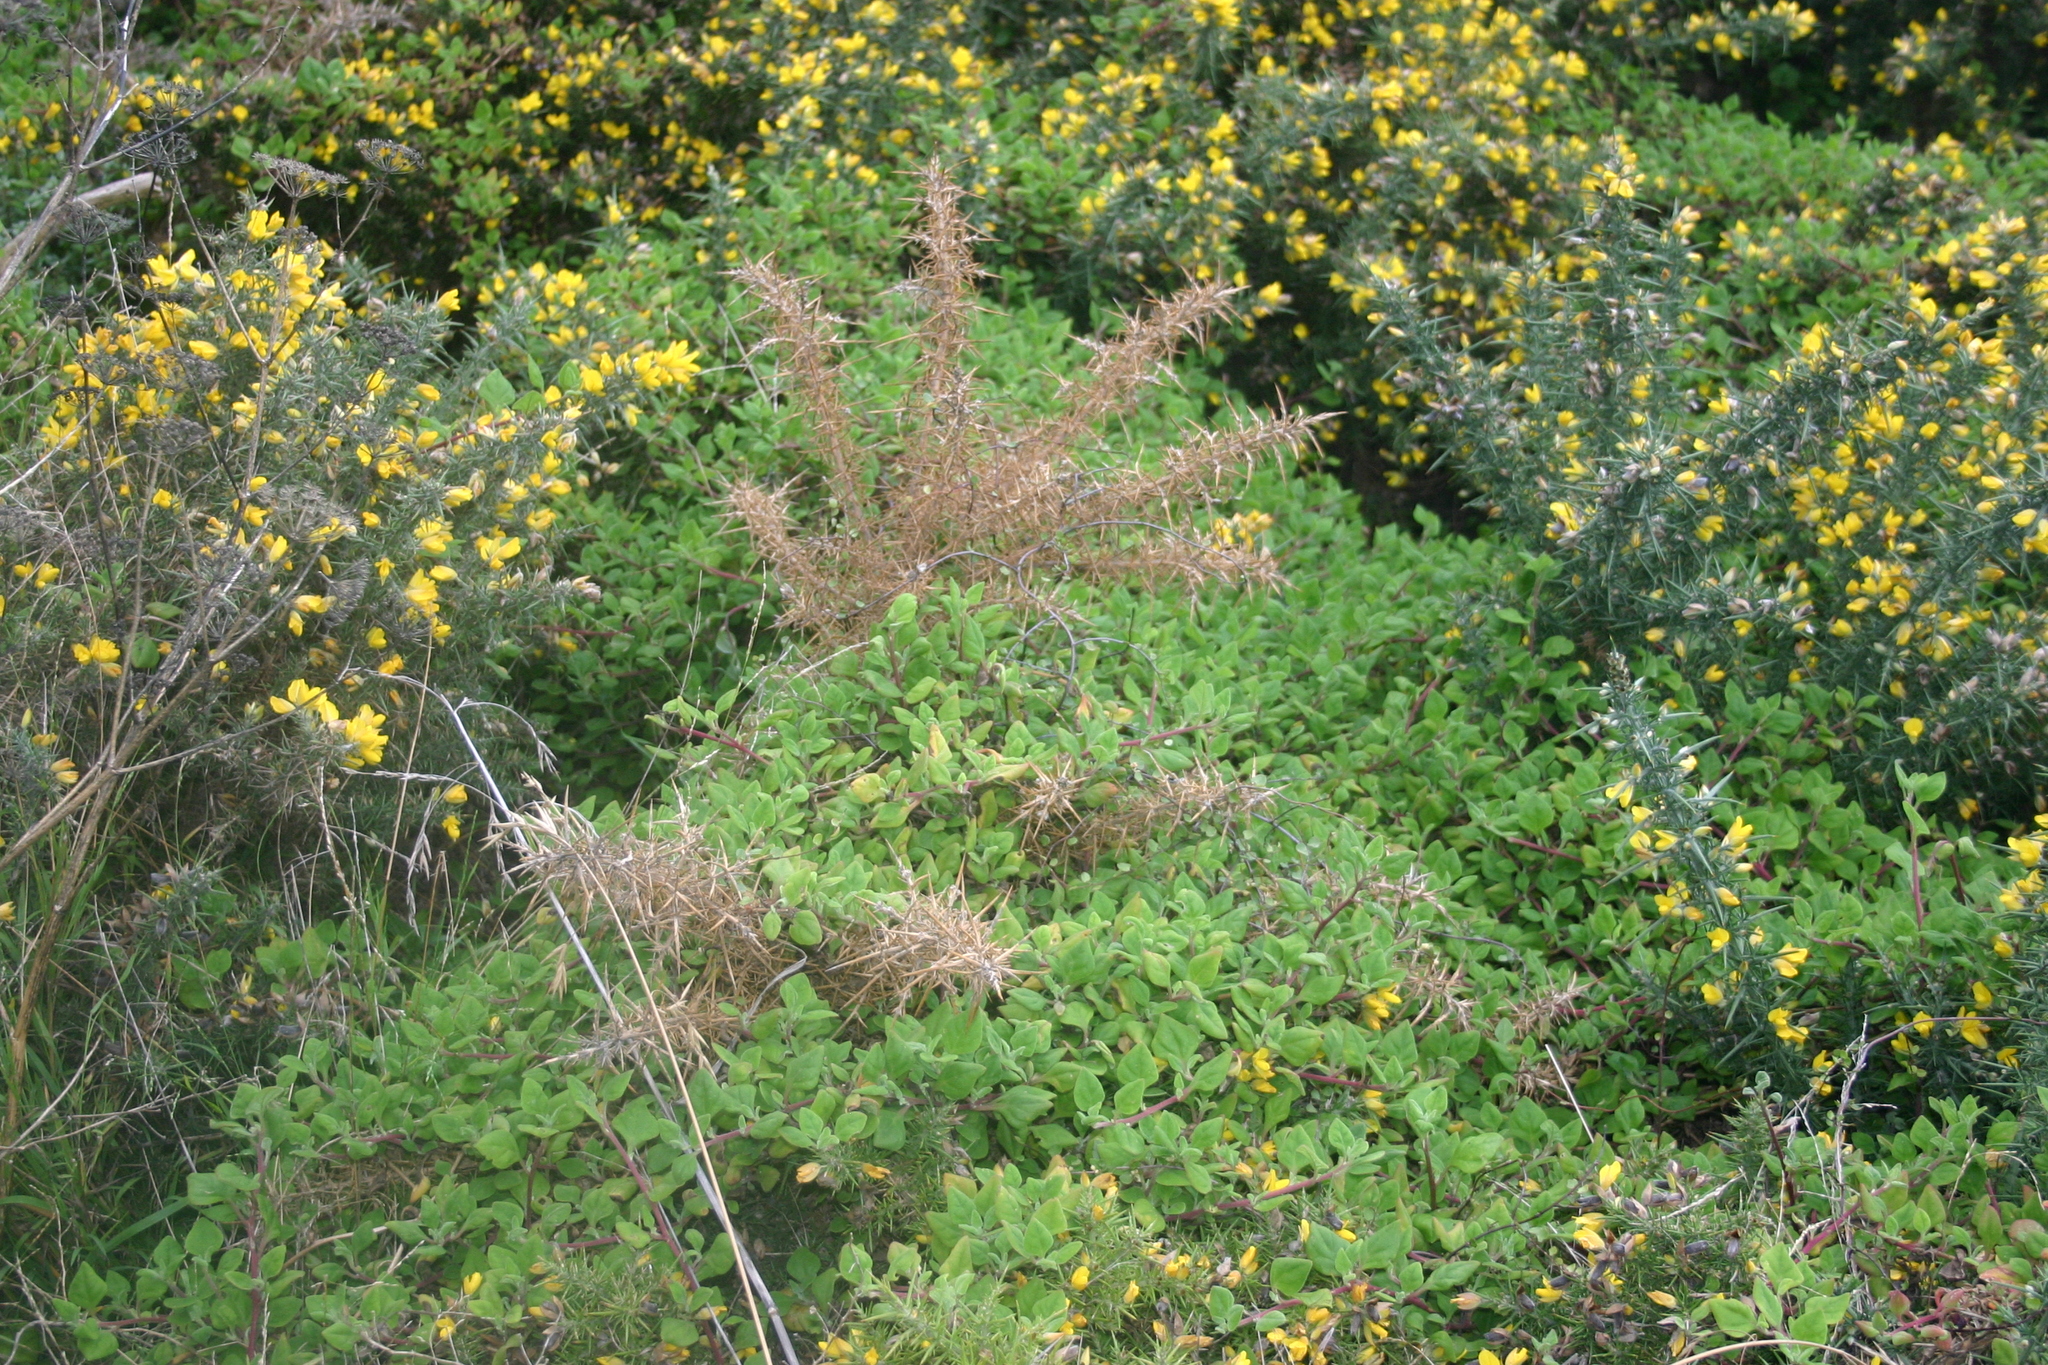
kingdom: Plantae
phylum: Tracheophyta
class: Magnoliopsida
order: Caryophyllales
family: Aizoaceae
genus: Tetragonia
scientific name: Tetragonia implexicoma
